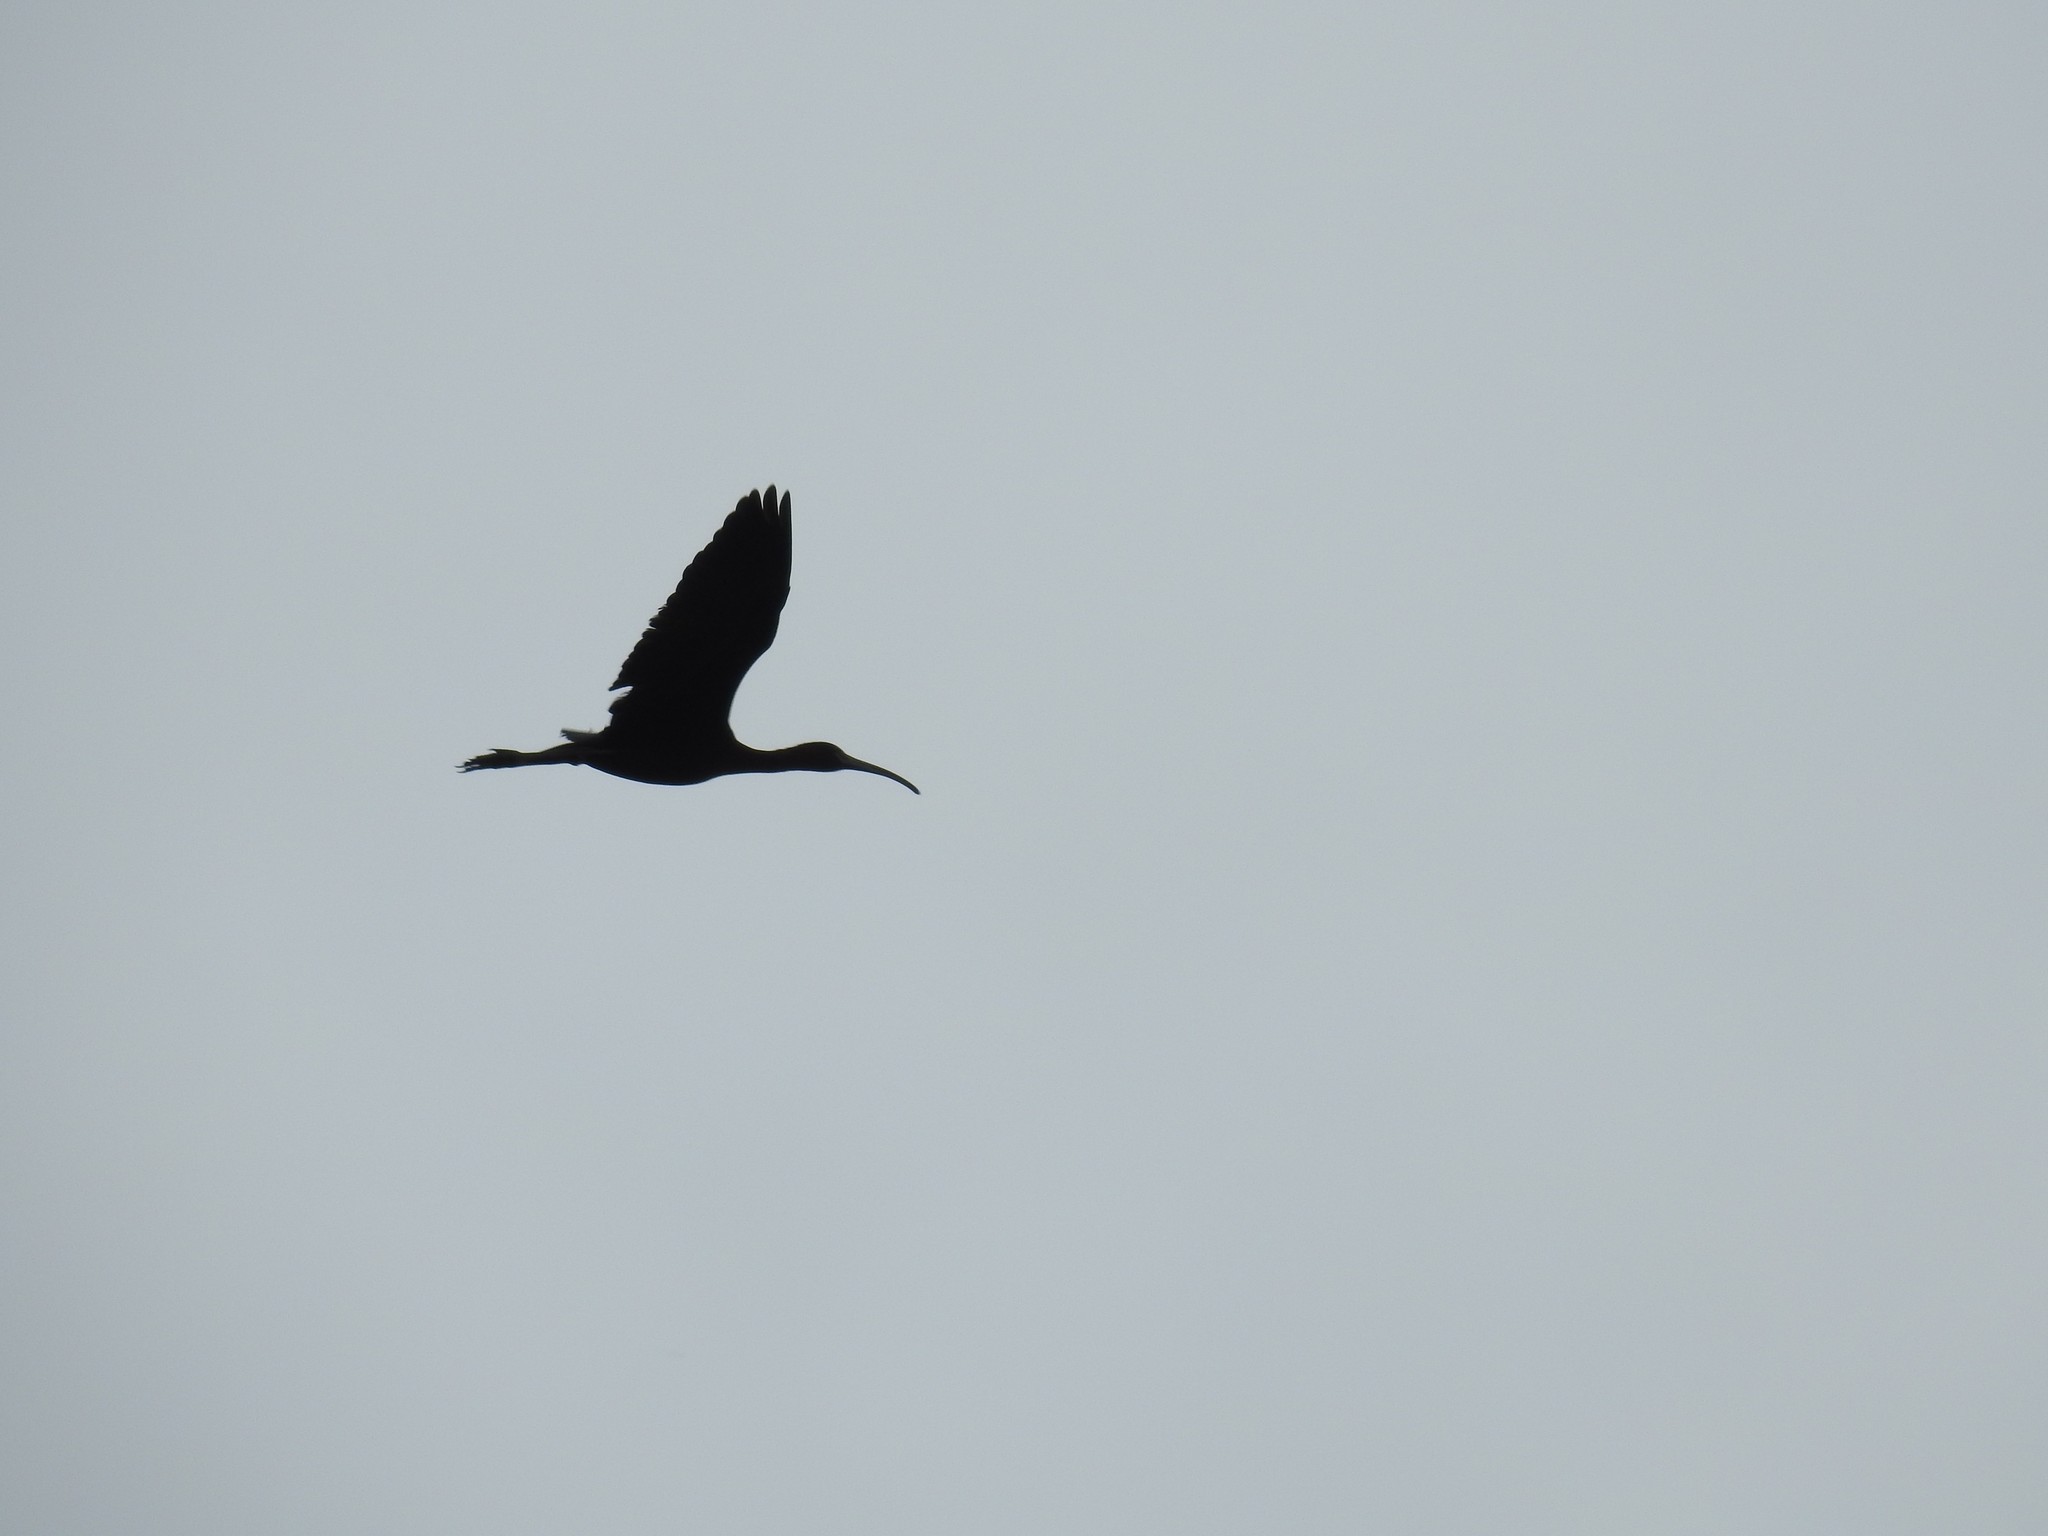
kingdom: Animalia
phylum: Chordata
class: Aves
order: Pelecaniformes
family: Threskiornithidae
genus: Plegadis
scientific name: Plegadis falcinellus
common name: Glossy ibis
